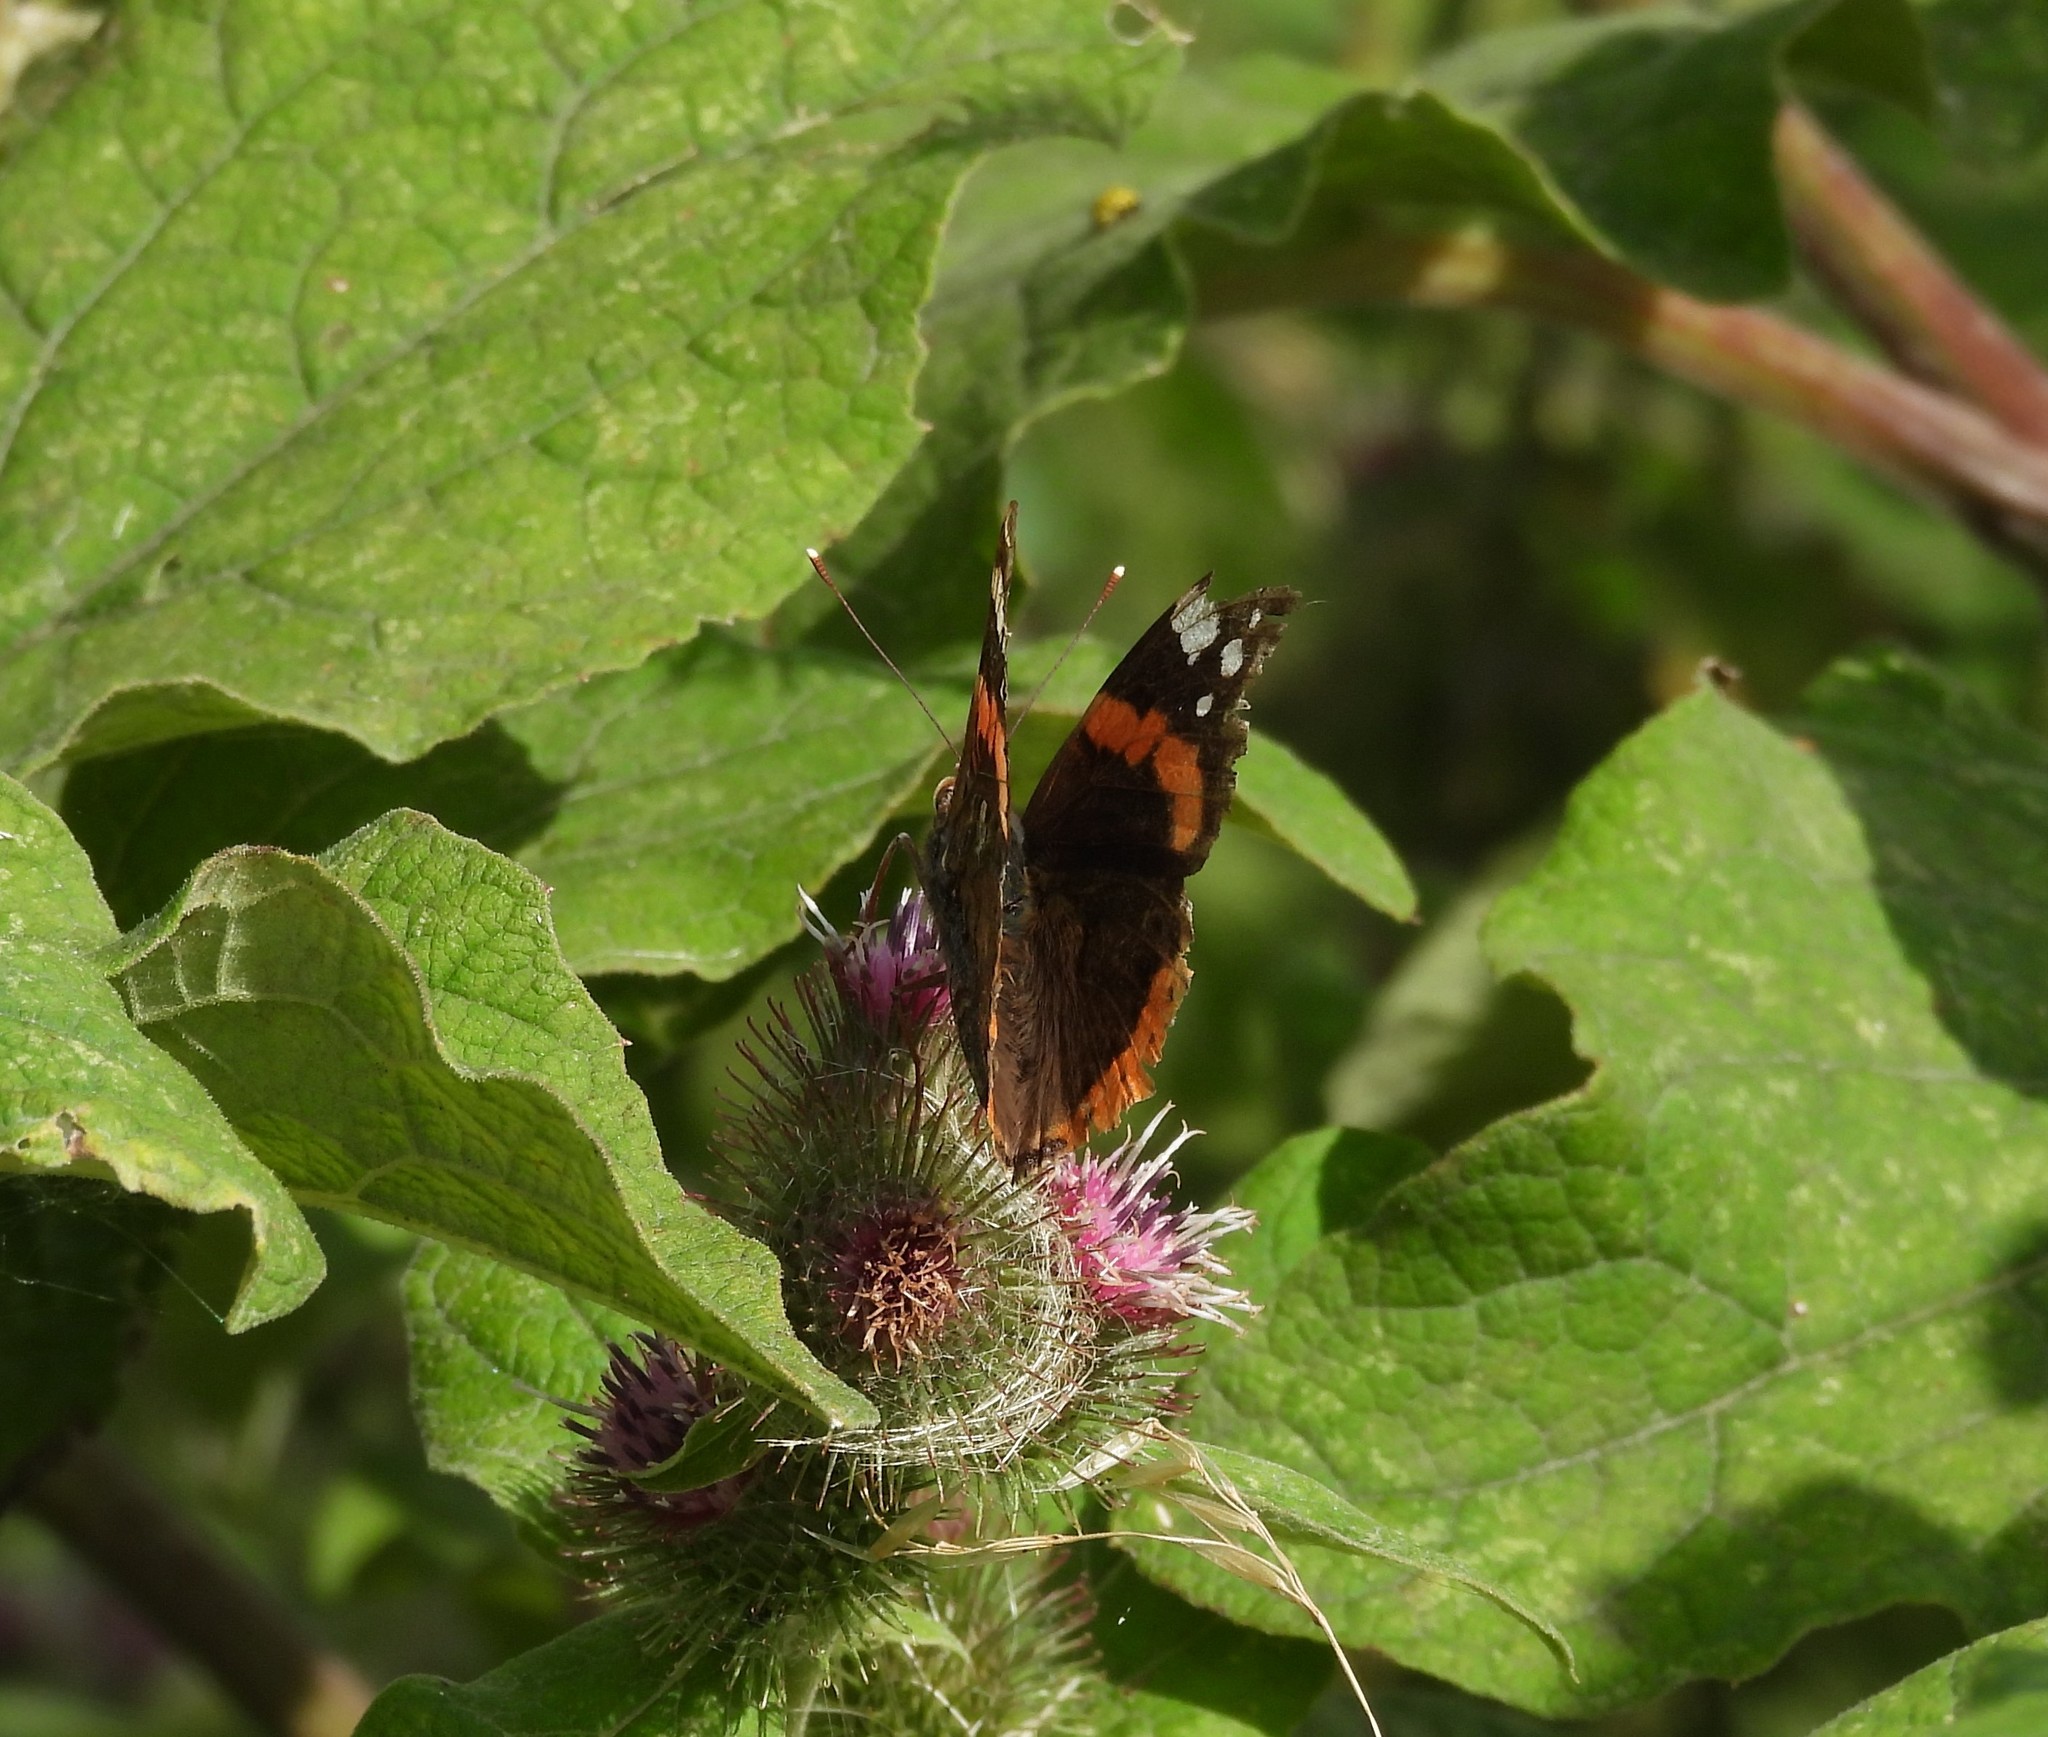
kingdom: Animalia
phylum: Arthropoda
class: Insecta
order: Lepidoptera
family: Nymphalidae
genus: Vanessa
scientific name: Vanessa atalanta
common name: Red admiral
